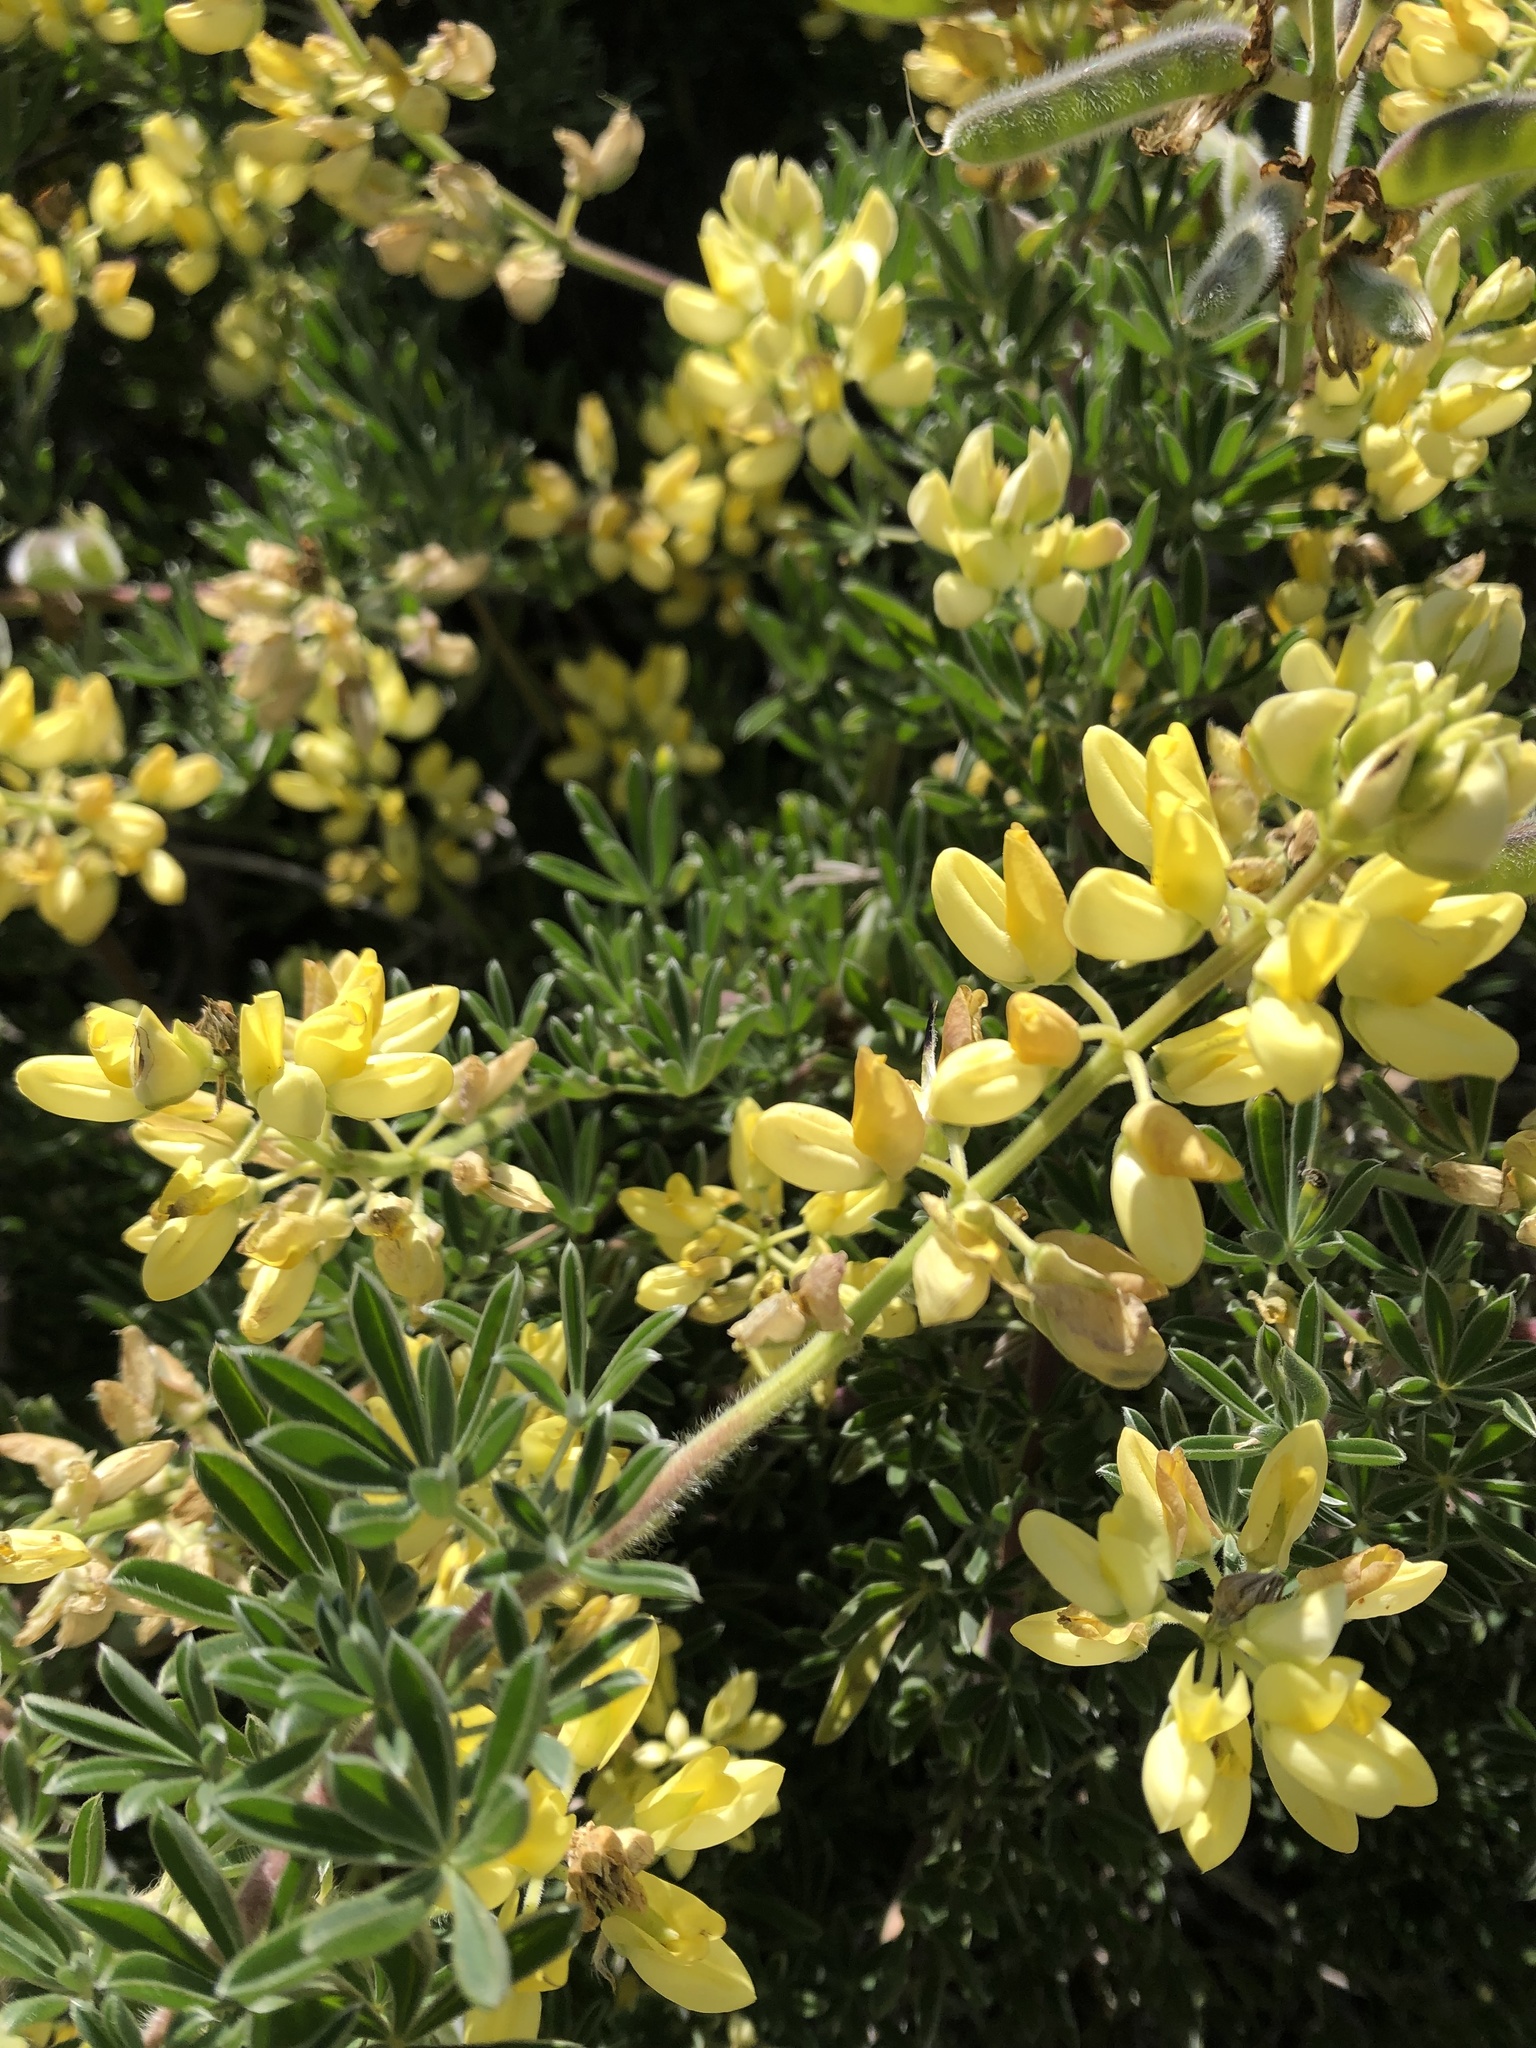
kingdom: Plantae
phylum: Tracheophyta
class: Magnoliopsida
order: Fabales
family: Fabaceae
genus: Lupinus
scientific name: Lupinus arboreus
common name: Yellow bush lupine
